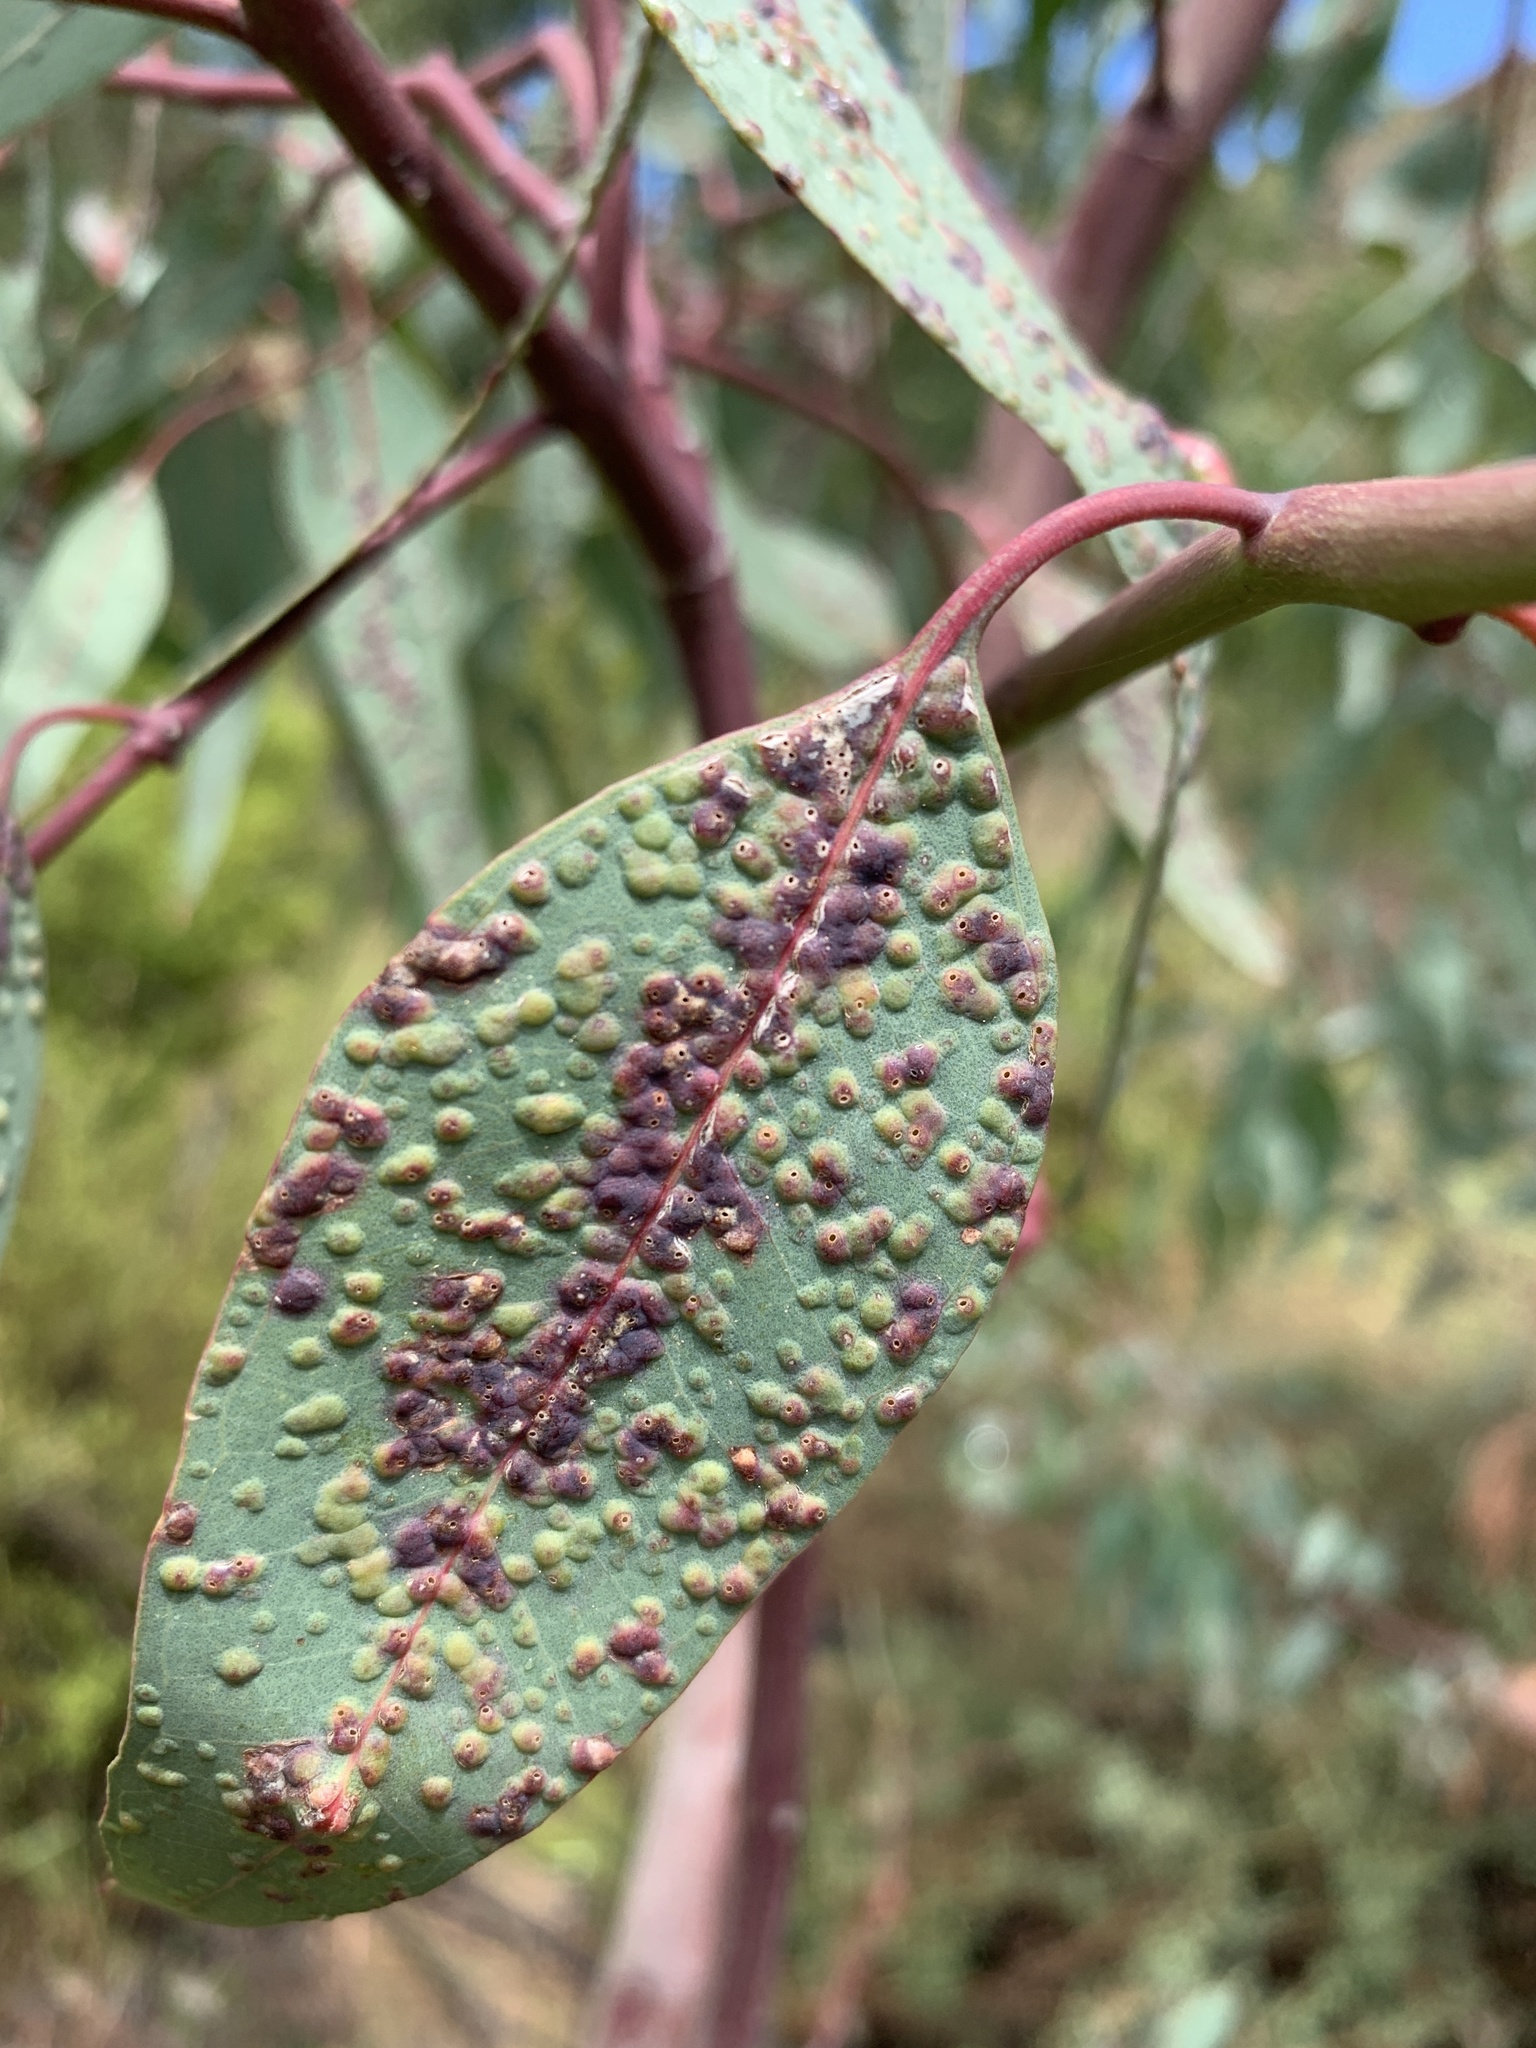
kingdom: Animalia
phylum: Arthropoda
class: Insecta
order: Hymenoptera
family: Eulophidae
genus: Ophelimus
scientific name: Ophelimus maskelli
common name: Gall wasp
